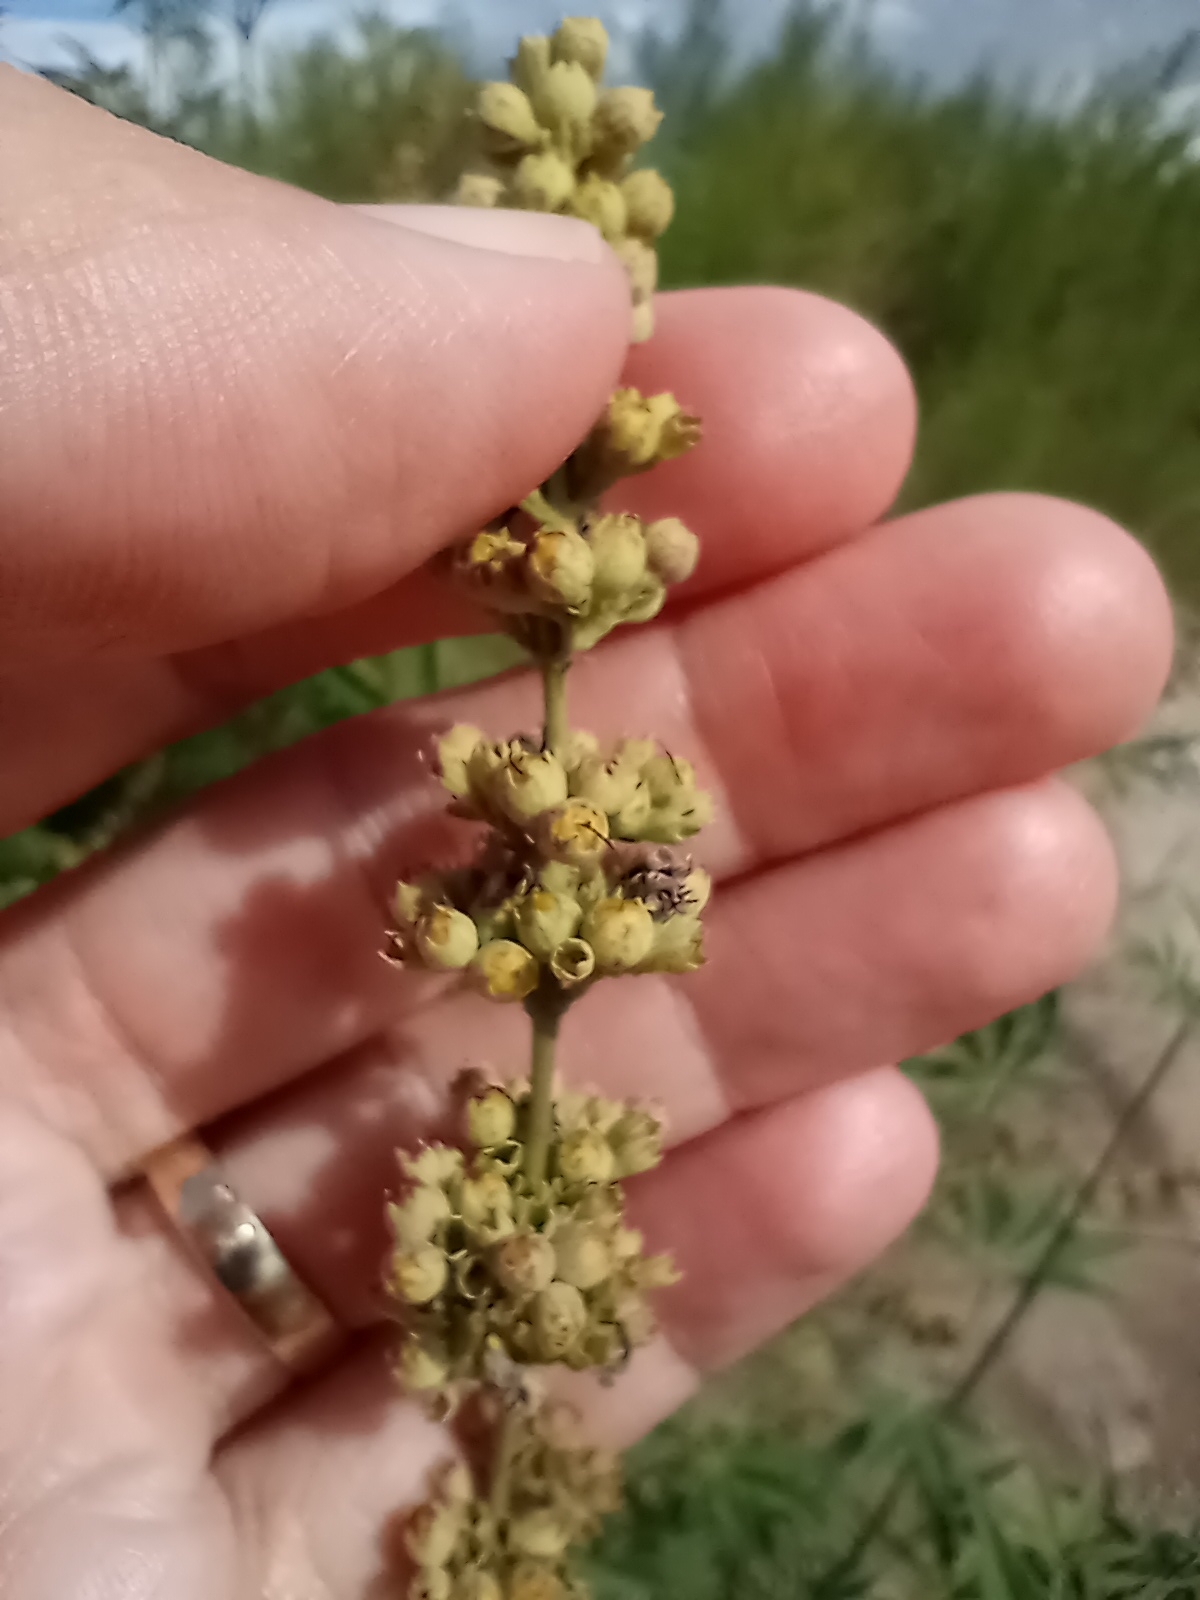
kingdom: Plantae
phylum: Tracheophyta
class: Magnoliopsida
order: Lamiales
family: Lamiaceae
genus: Vitex
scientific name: Vitex agnus-castus
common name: Chasteberry
